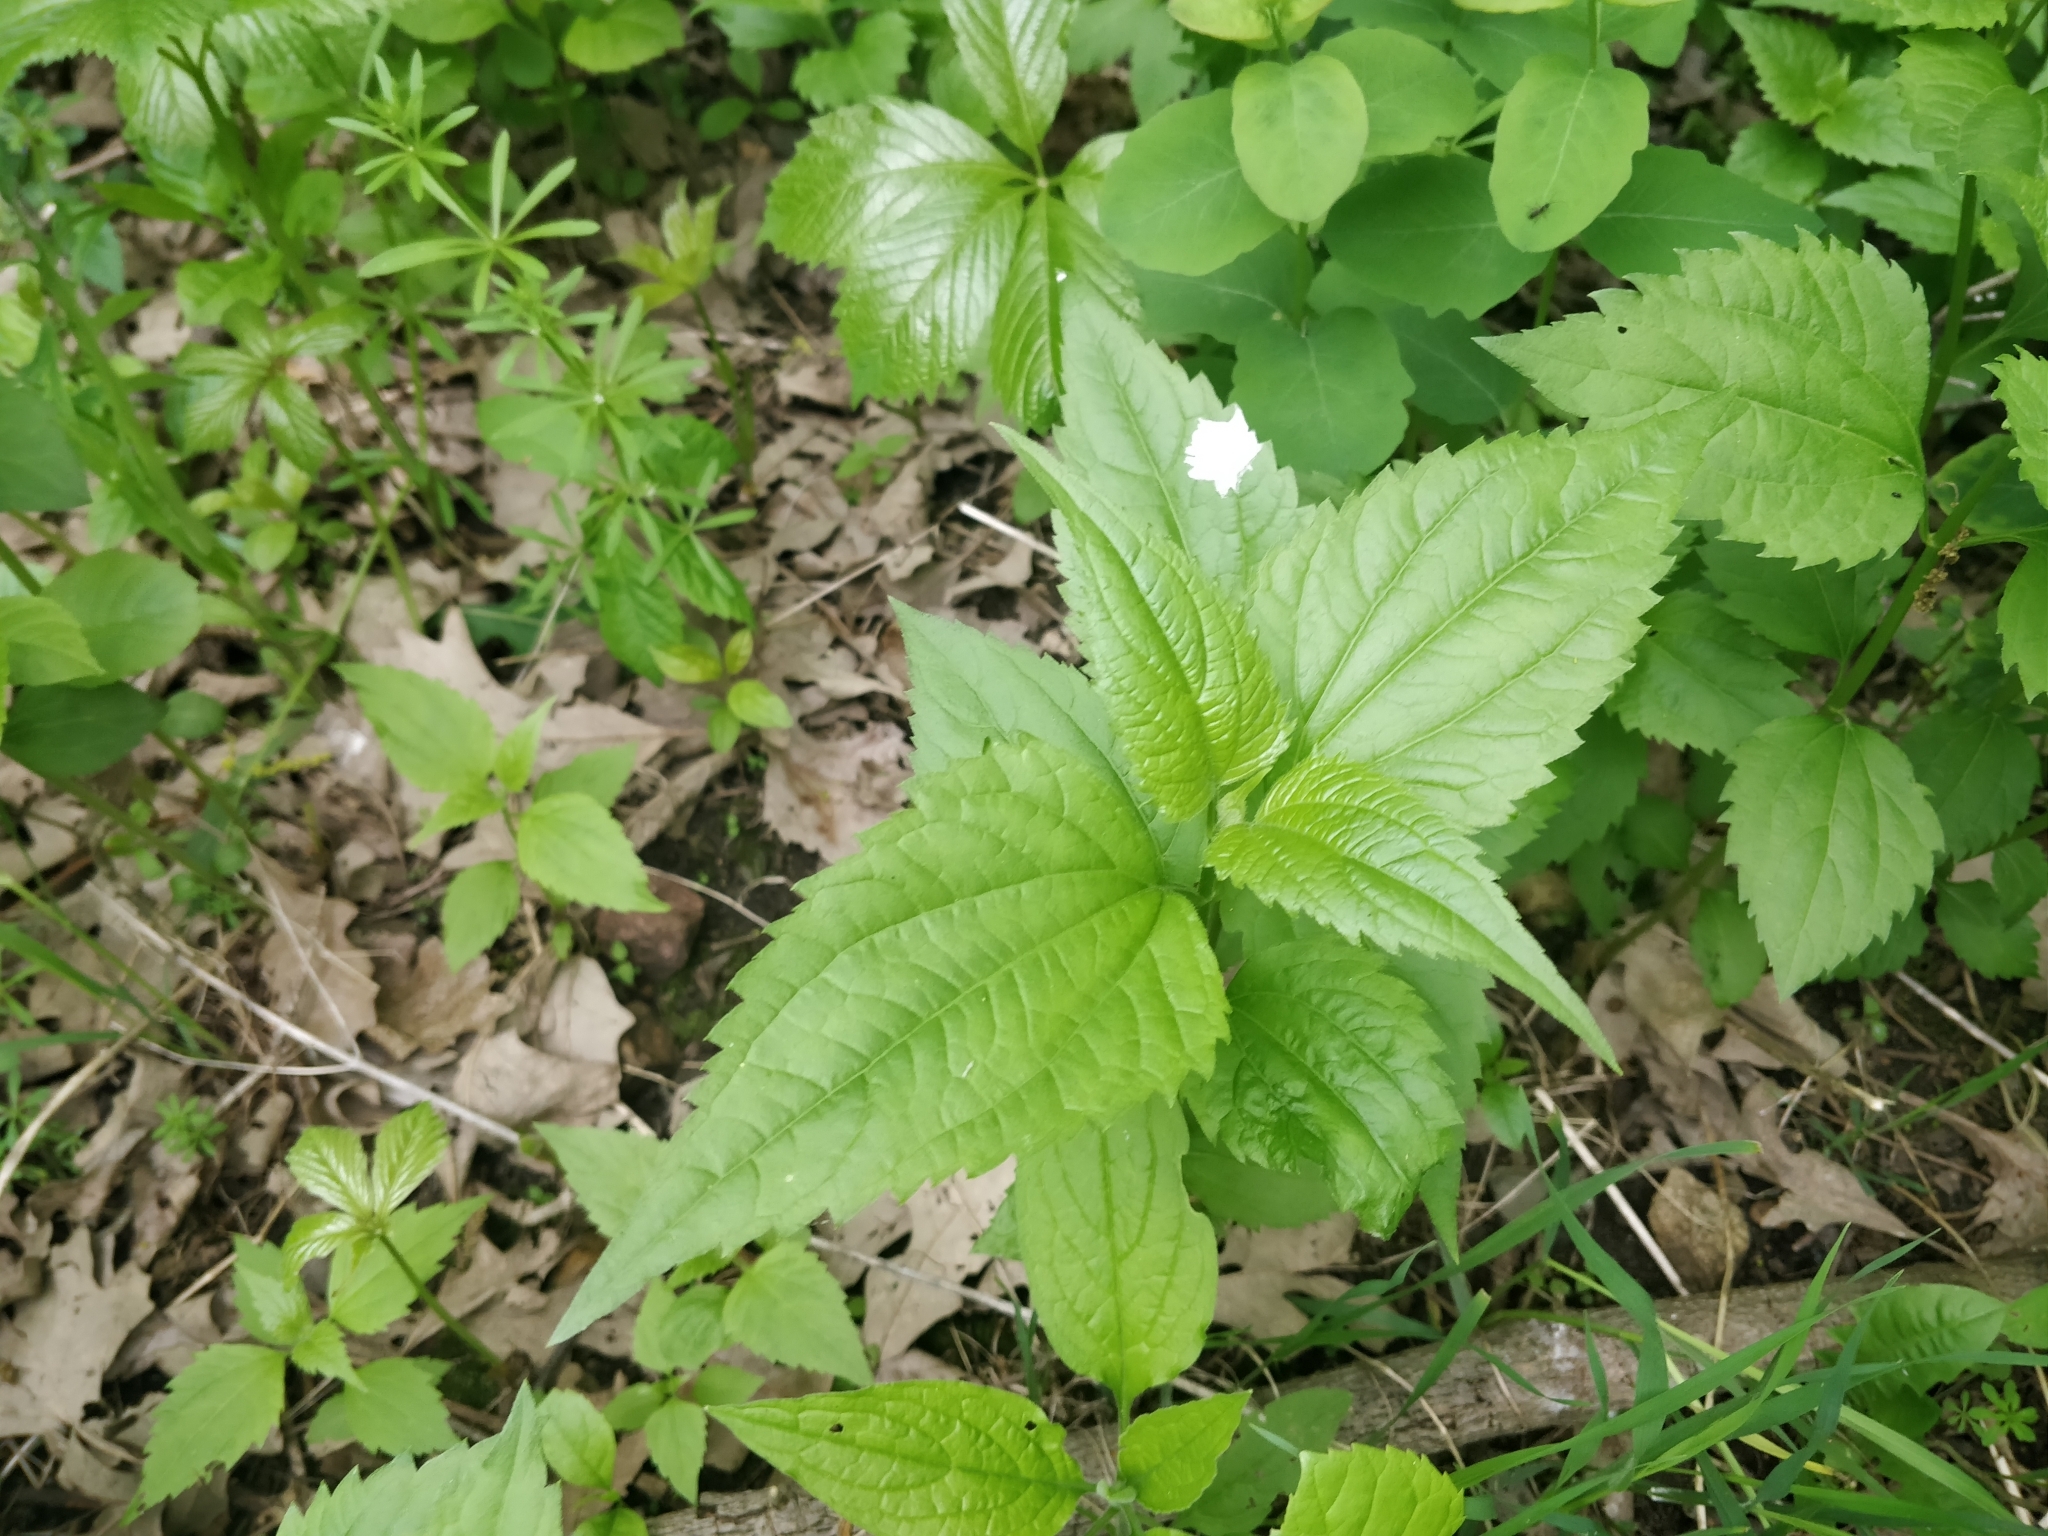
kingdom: Plantae
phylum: Tracheophyta
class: Magnoliopsida
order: Asterales
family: Asteraceae
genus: Ageratina
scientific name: Ageratina altissima
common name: White snakeroot
